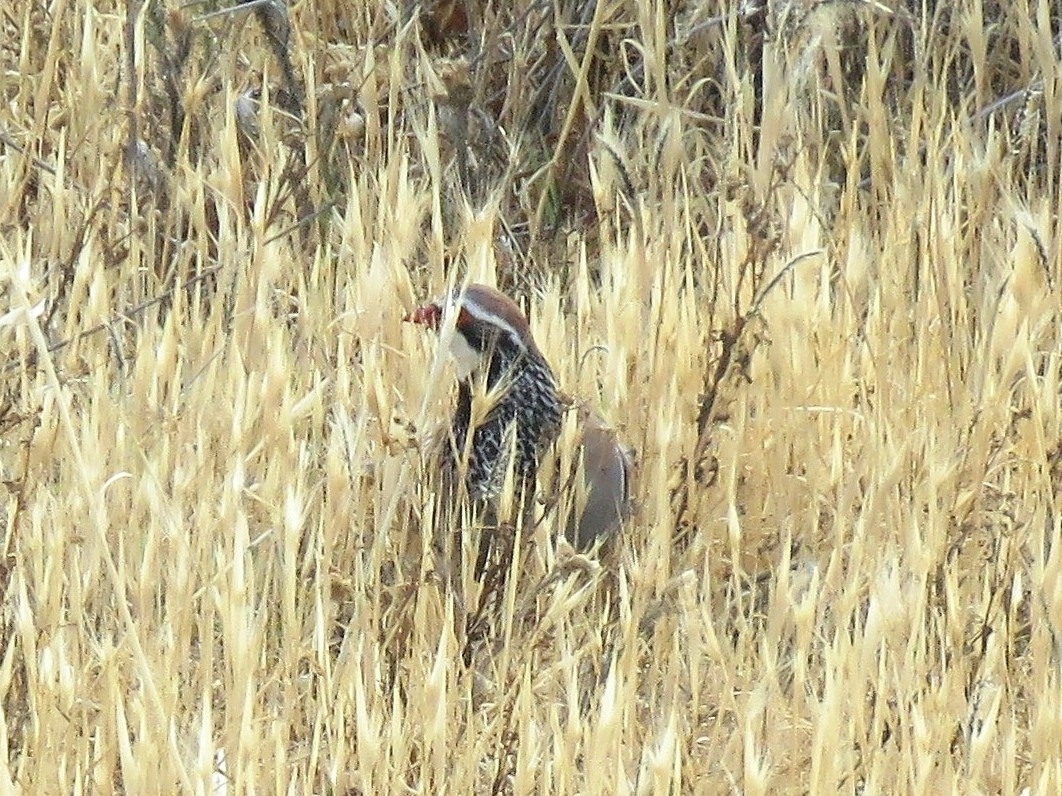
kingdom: Animalia
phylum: Chordata
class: Aves
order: Galliformes
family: Phasianidae
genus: Alectoris
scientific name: Alectoris rufa
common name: Red-legged partridge
